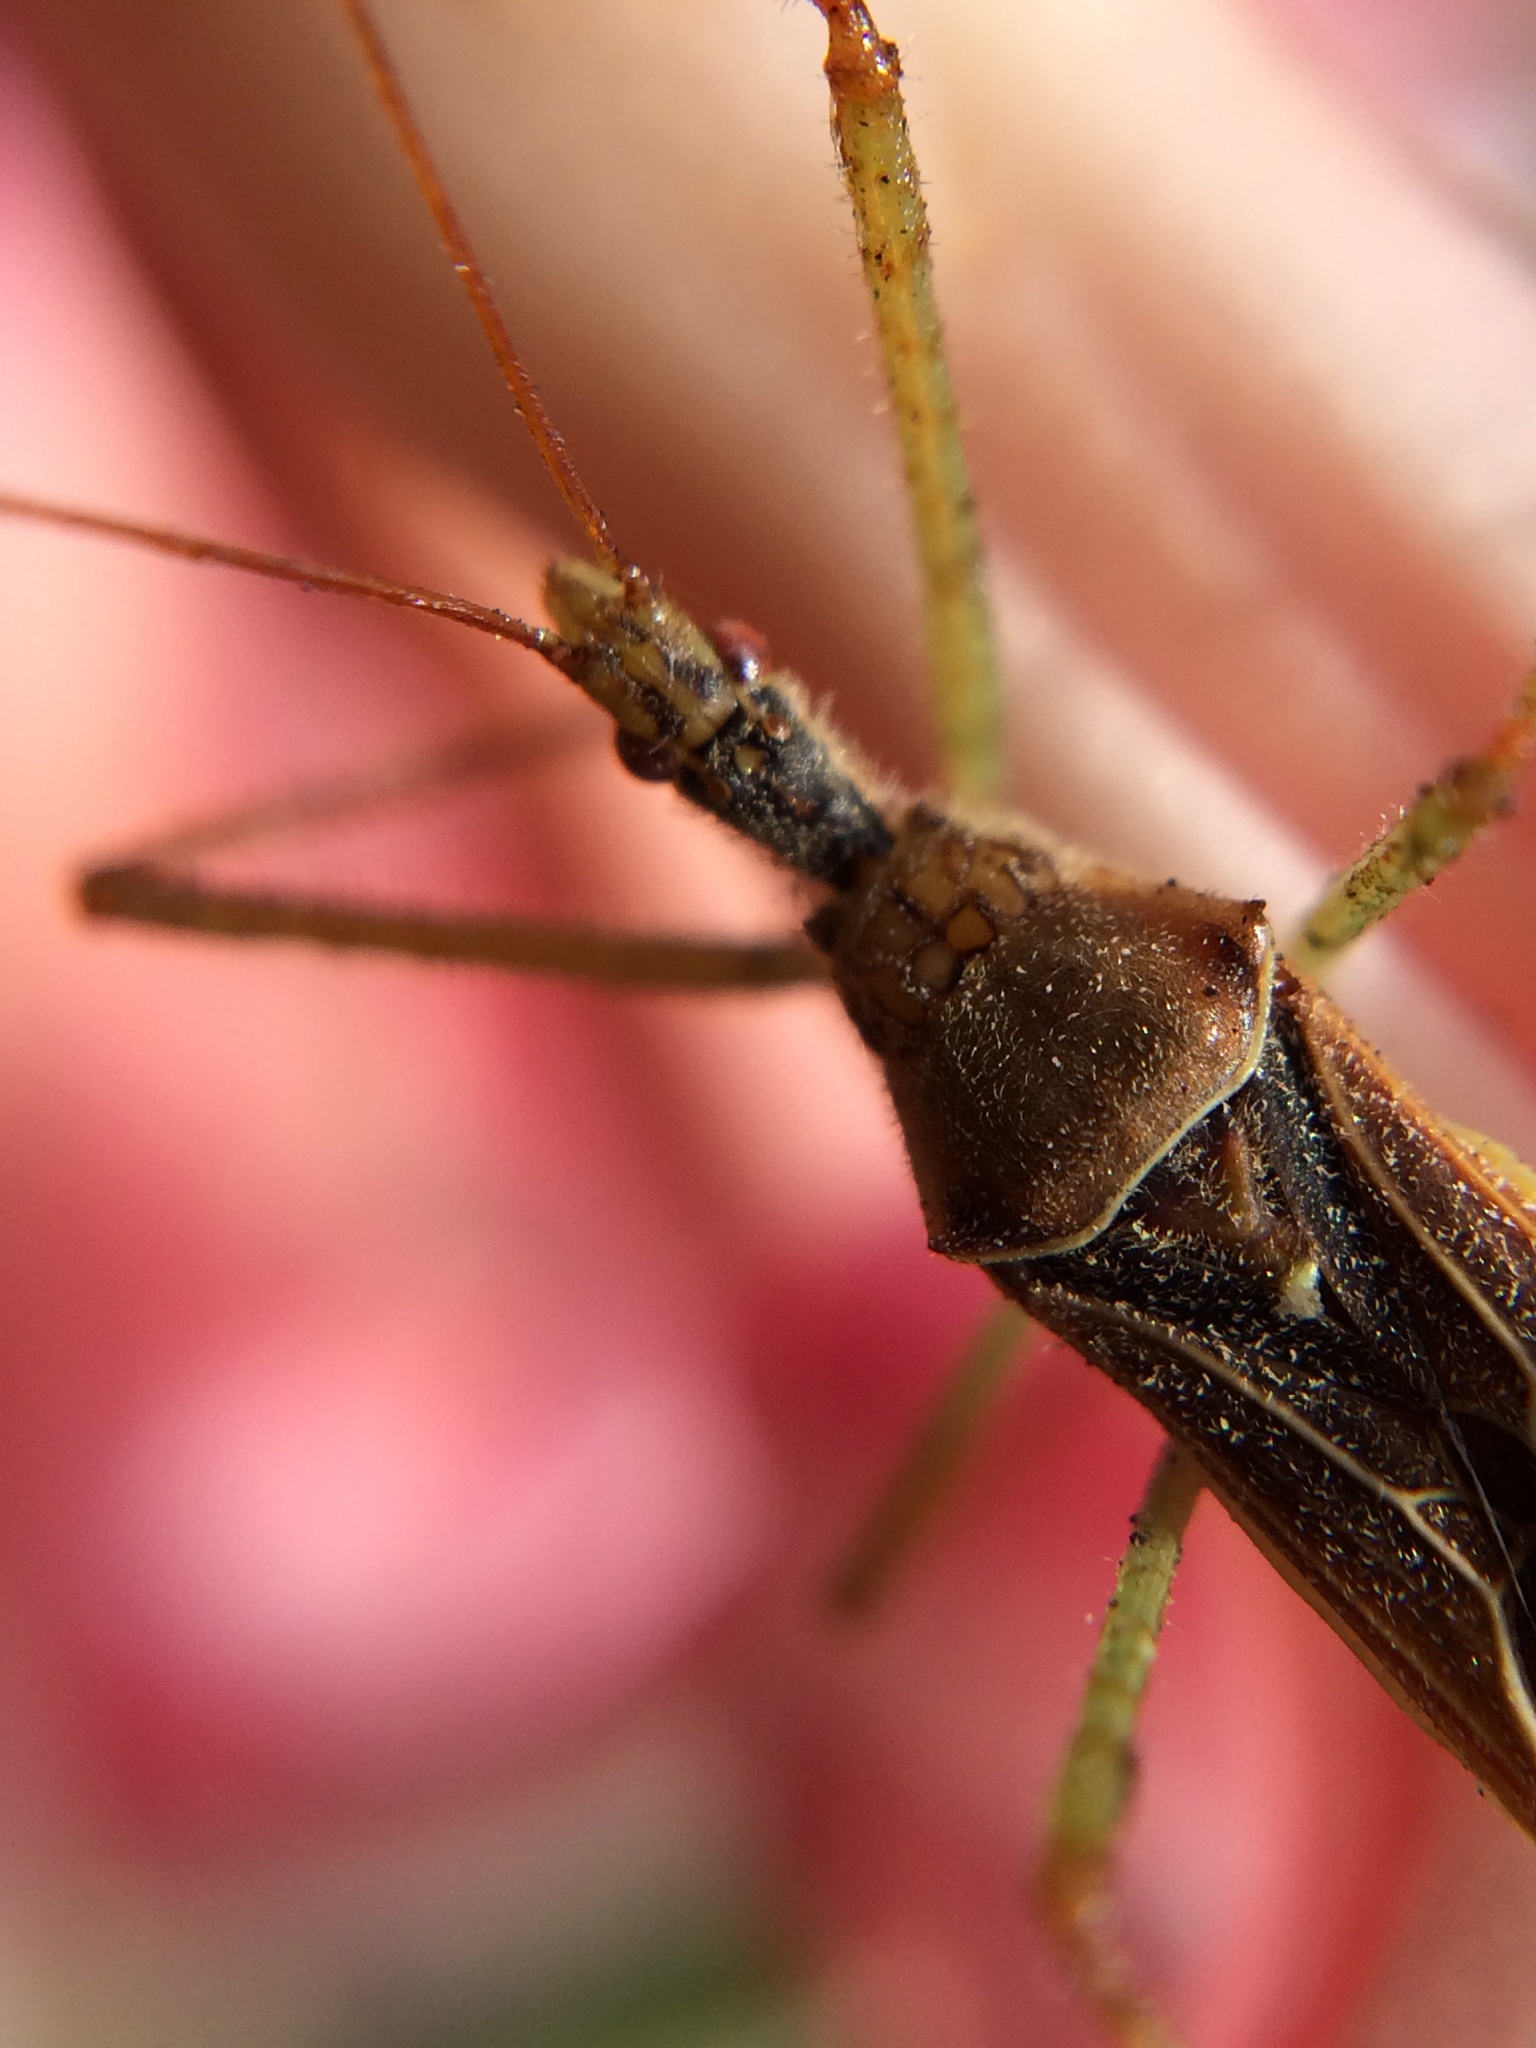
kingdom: Animalia
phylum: Arthropoda
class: Insecta
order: Hemiptera
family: Reduviidae
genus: Zelus
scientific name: Zelus renardii
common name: Assassin bug
